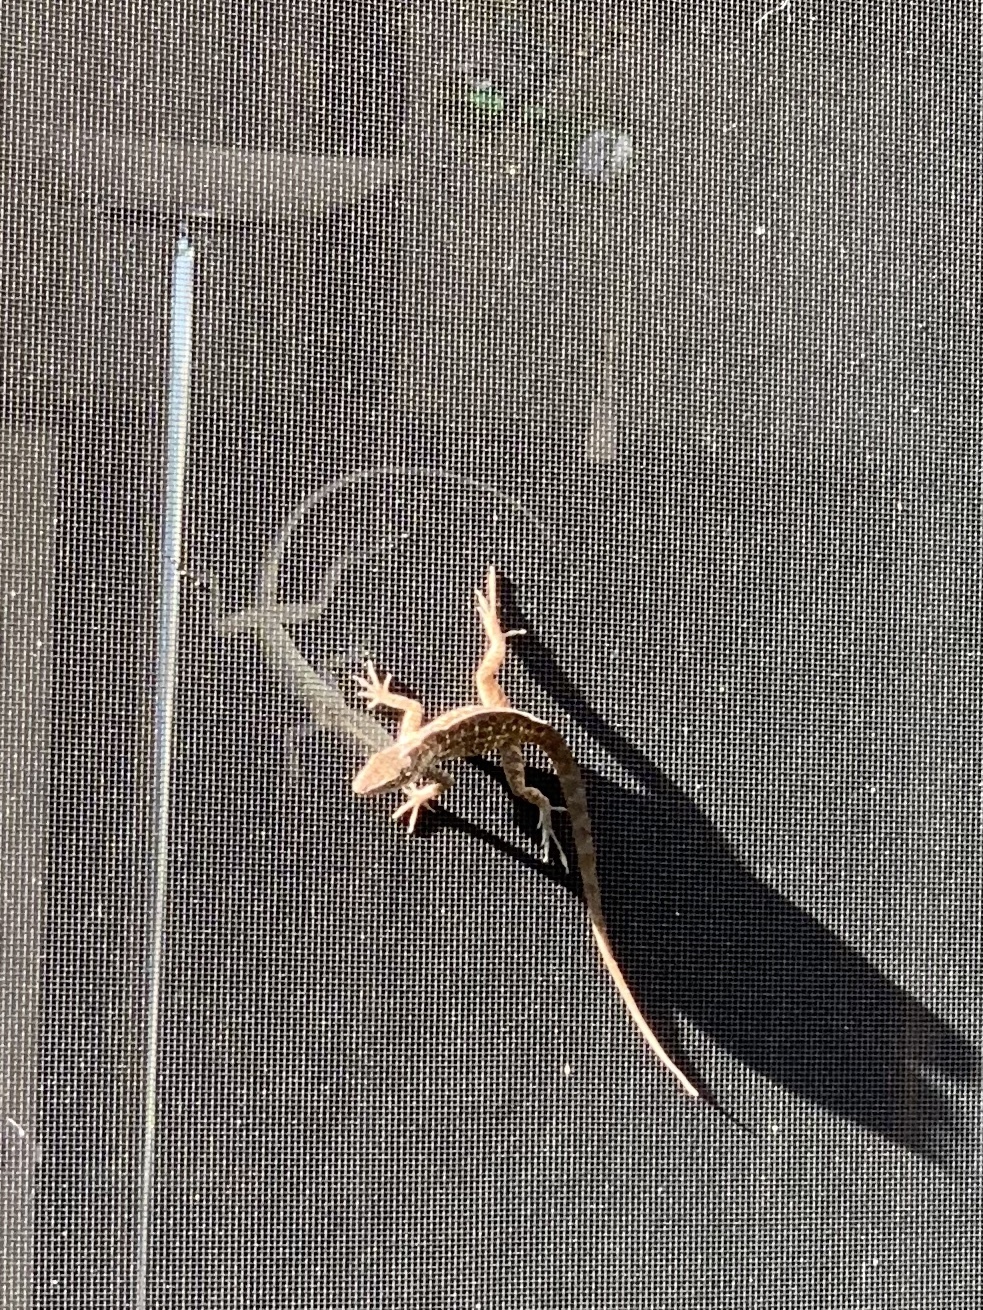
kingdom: Animalia
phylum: Chordata
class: Squamata
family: Dactyloidae
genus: Anolis
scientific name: Anolis sagrei
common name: Brown anole
